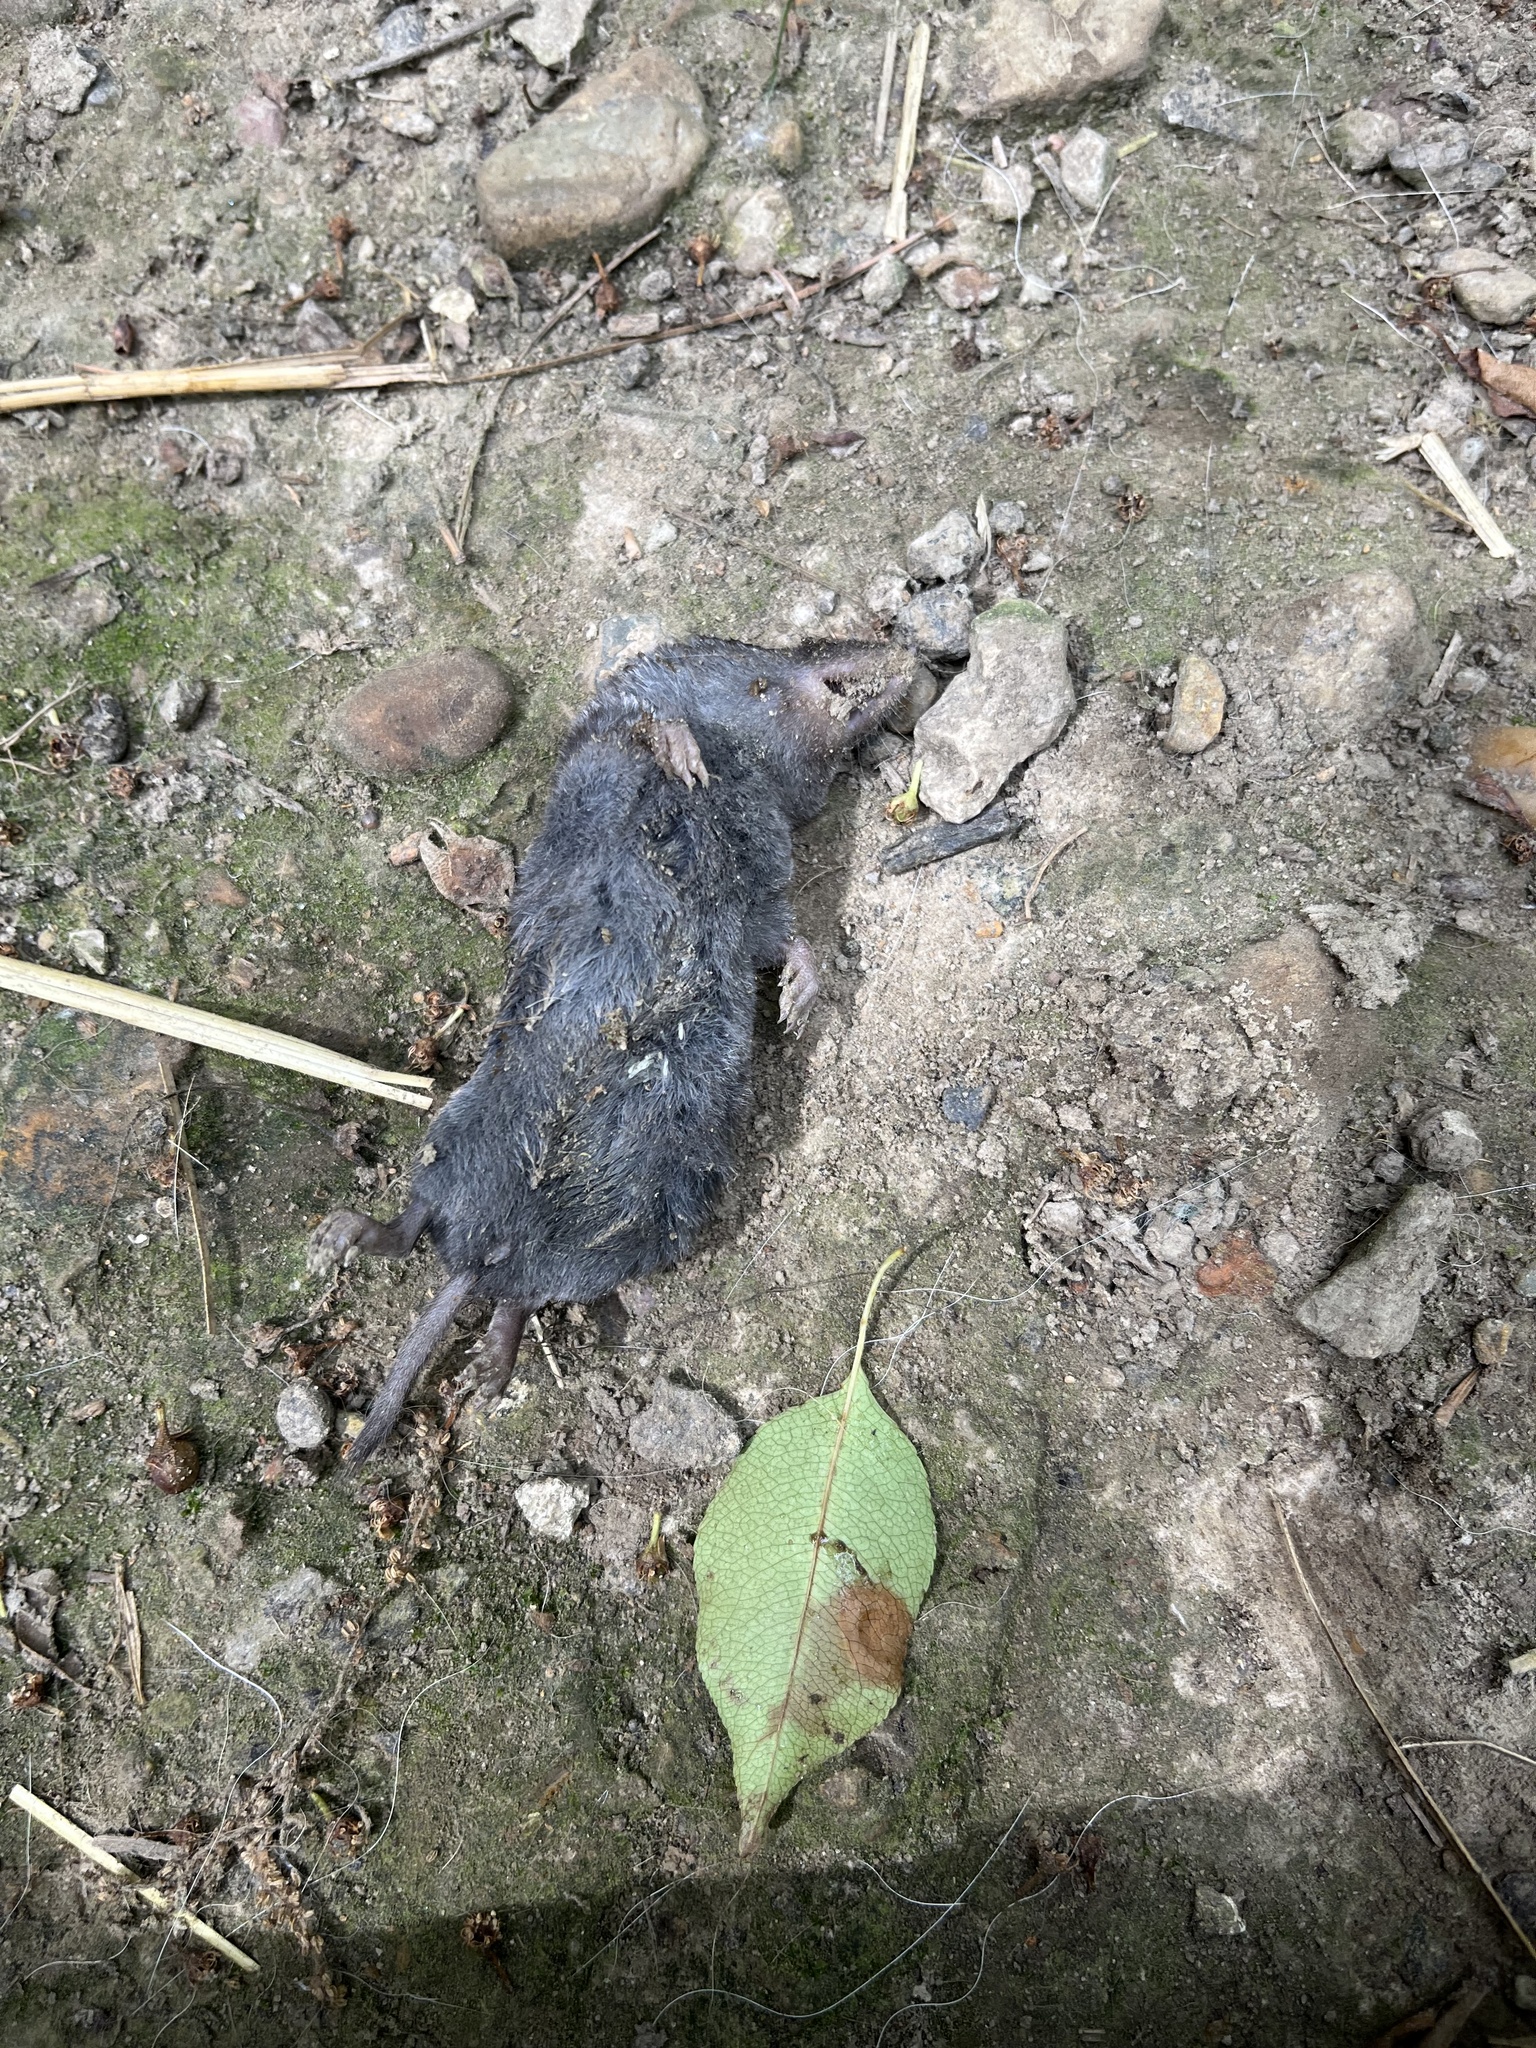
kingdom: Animalia
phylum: Chordata
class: Mammalia
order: Soricomorpha
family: Soricidae
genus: Blarina
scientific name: Blarina brevicauda
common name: Northern short-tailed shrew
